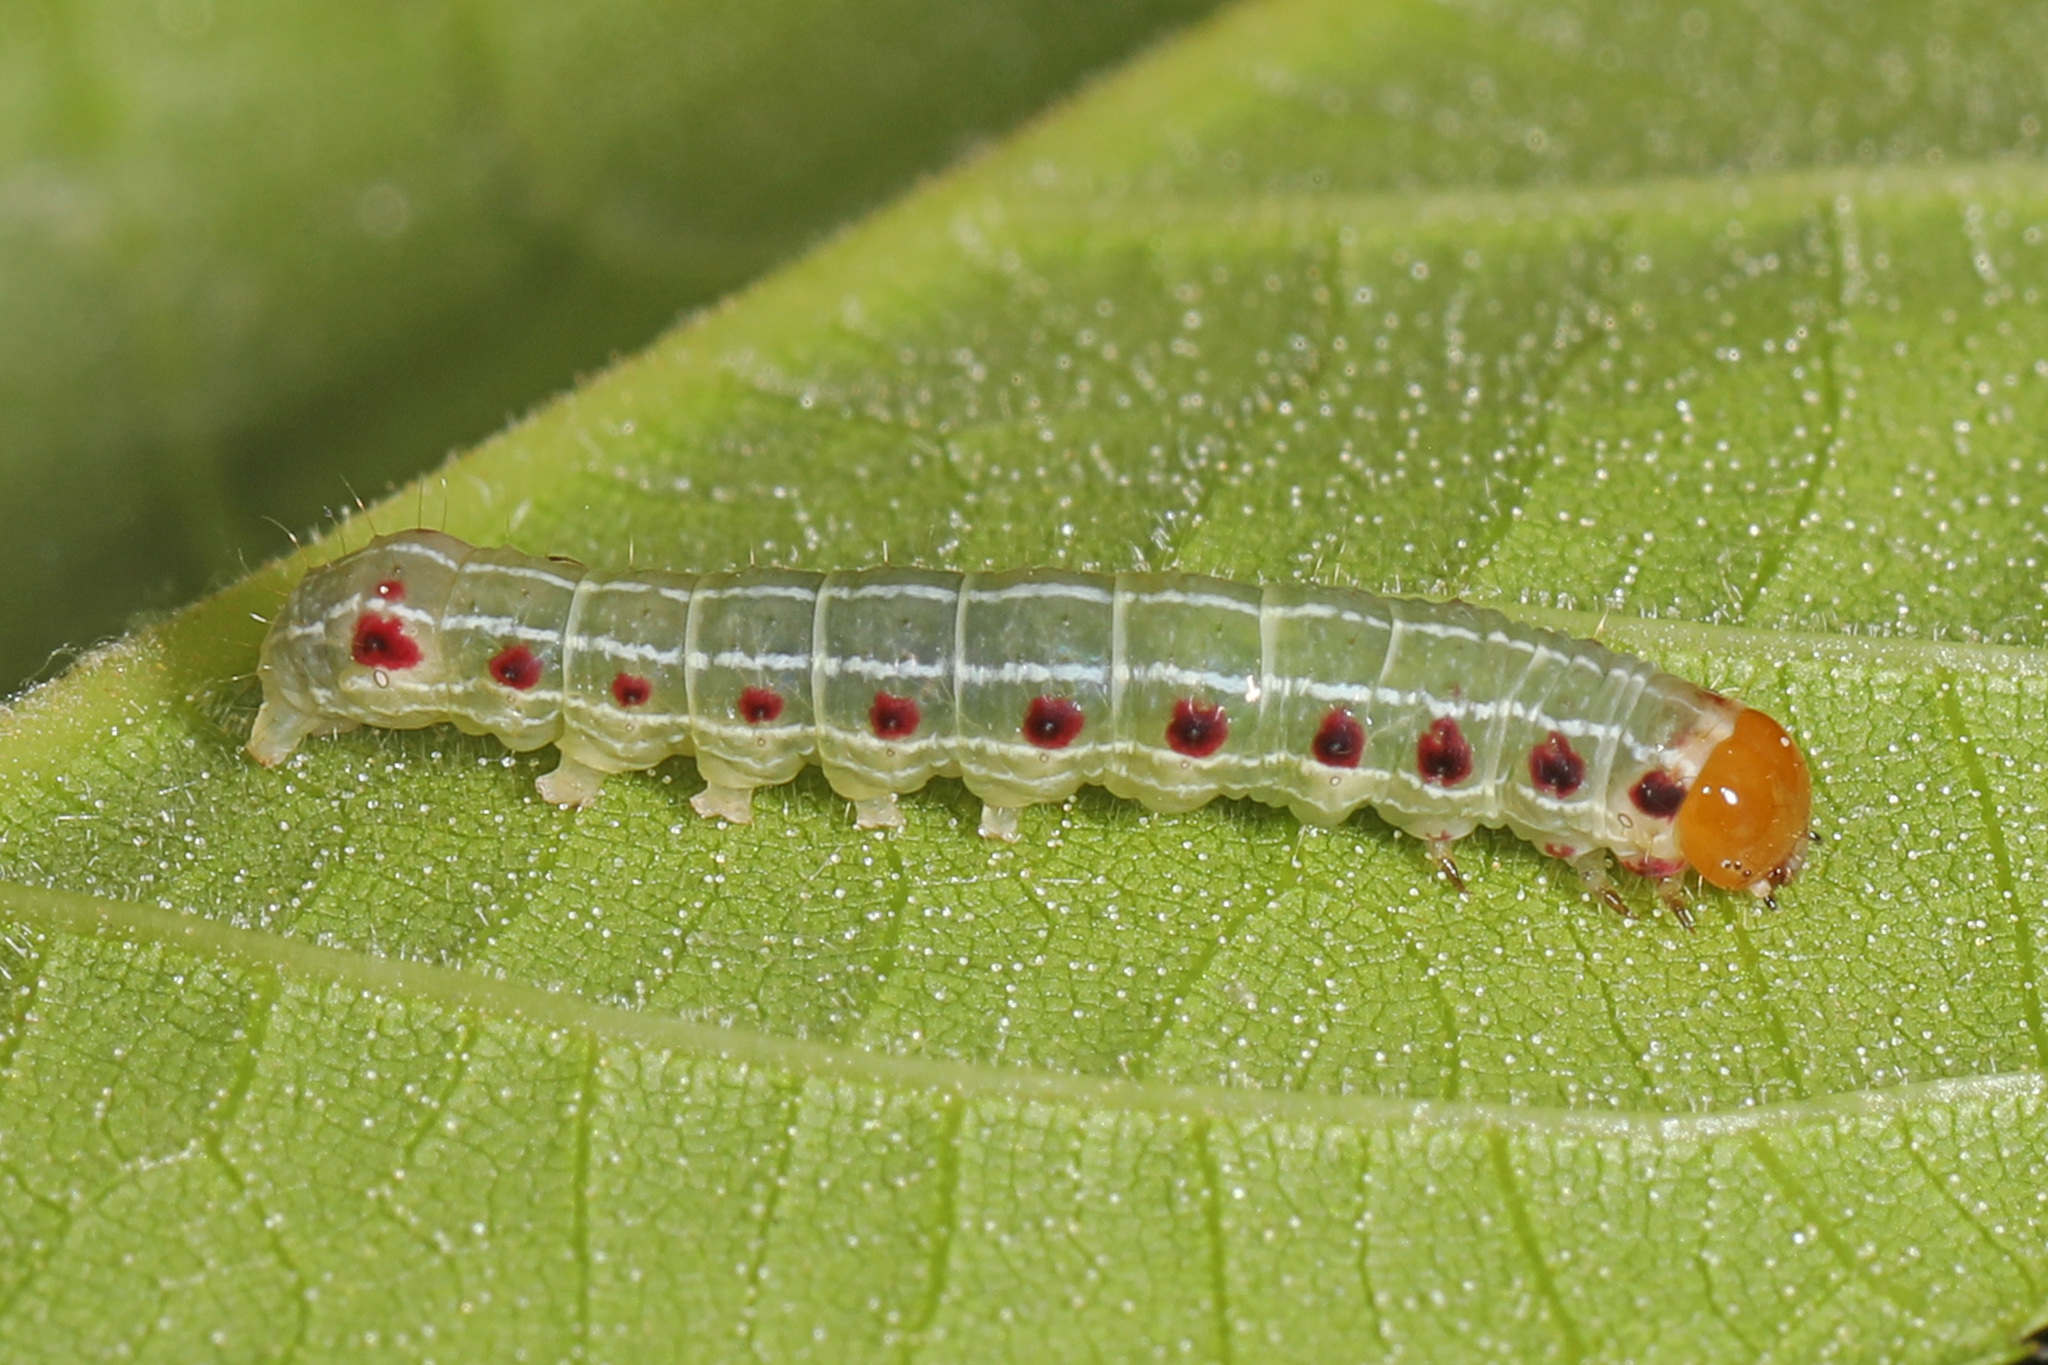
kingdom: Animalia
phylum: Arthropoda
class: Insecta
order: Lepidoptera
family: Noctuidae
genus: Achatia
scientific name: Achatia confusa
